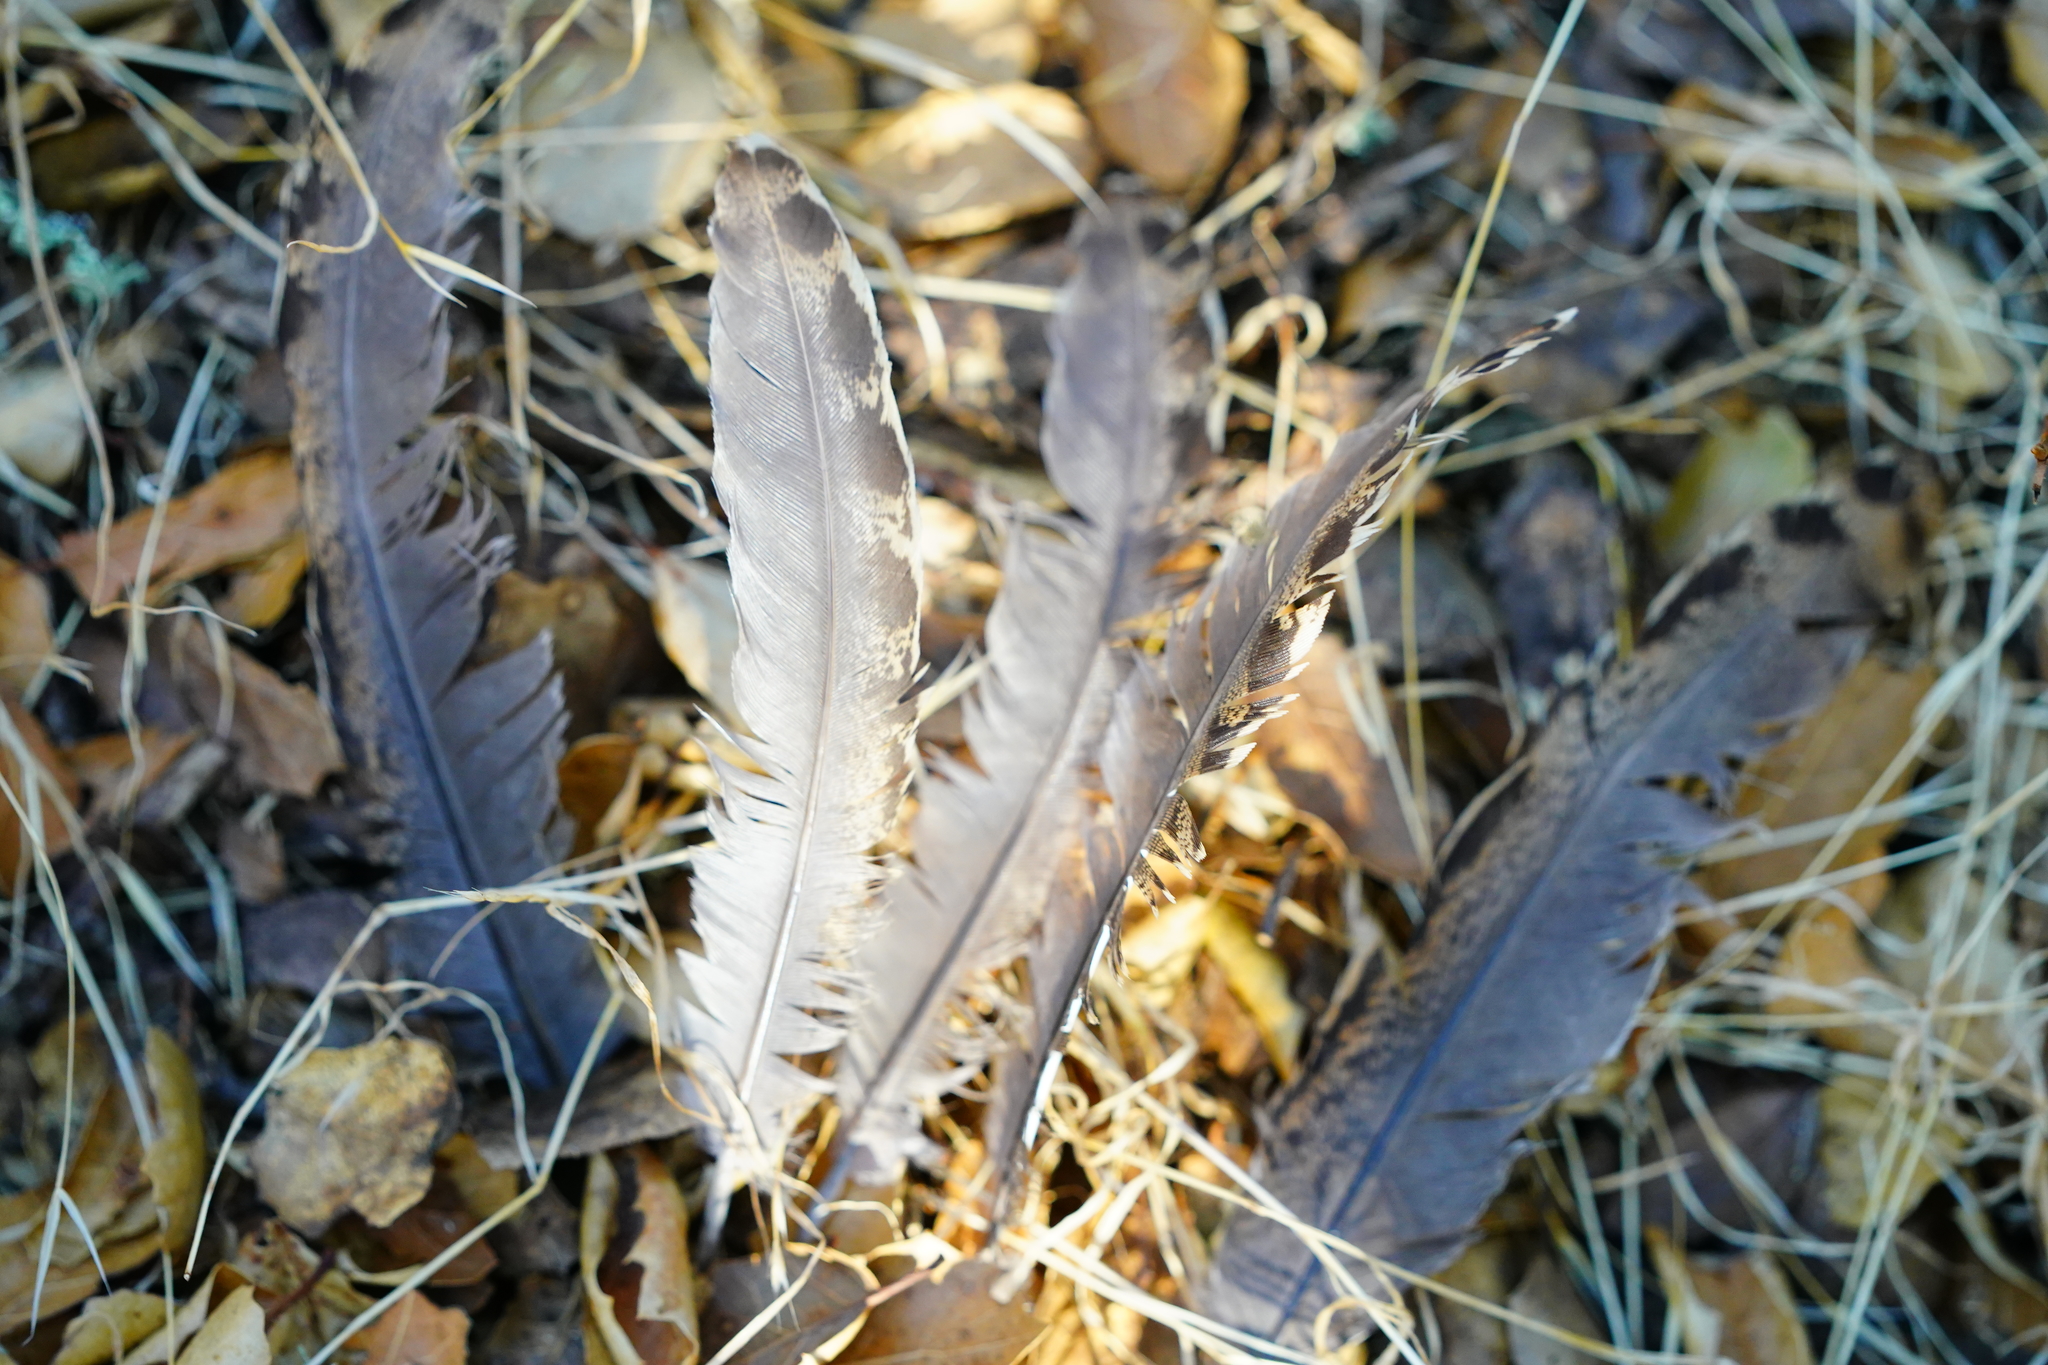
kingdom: Animalia
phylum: Chordata
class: Aves
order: Galliformes
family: Phasianidae
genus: Meleagris
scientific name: Meleagris gallopavo
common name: Wild turkey
